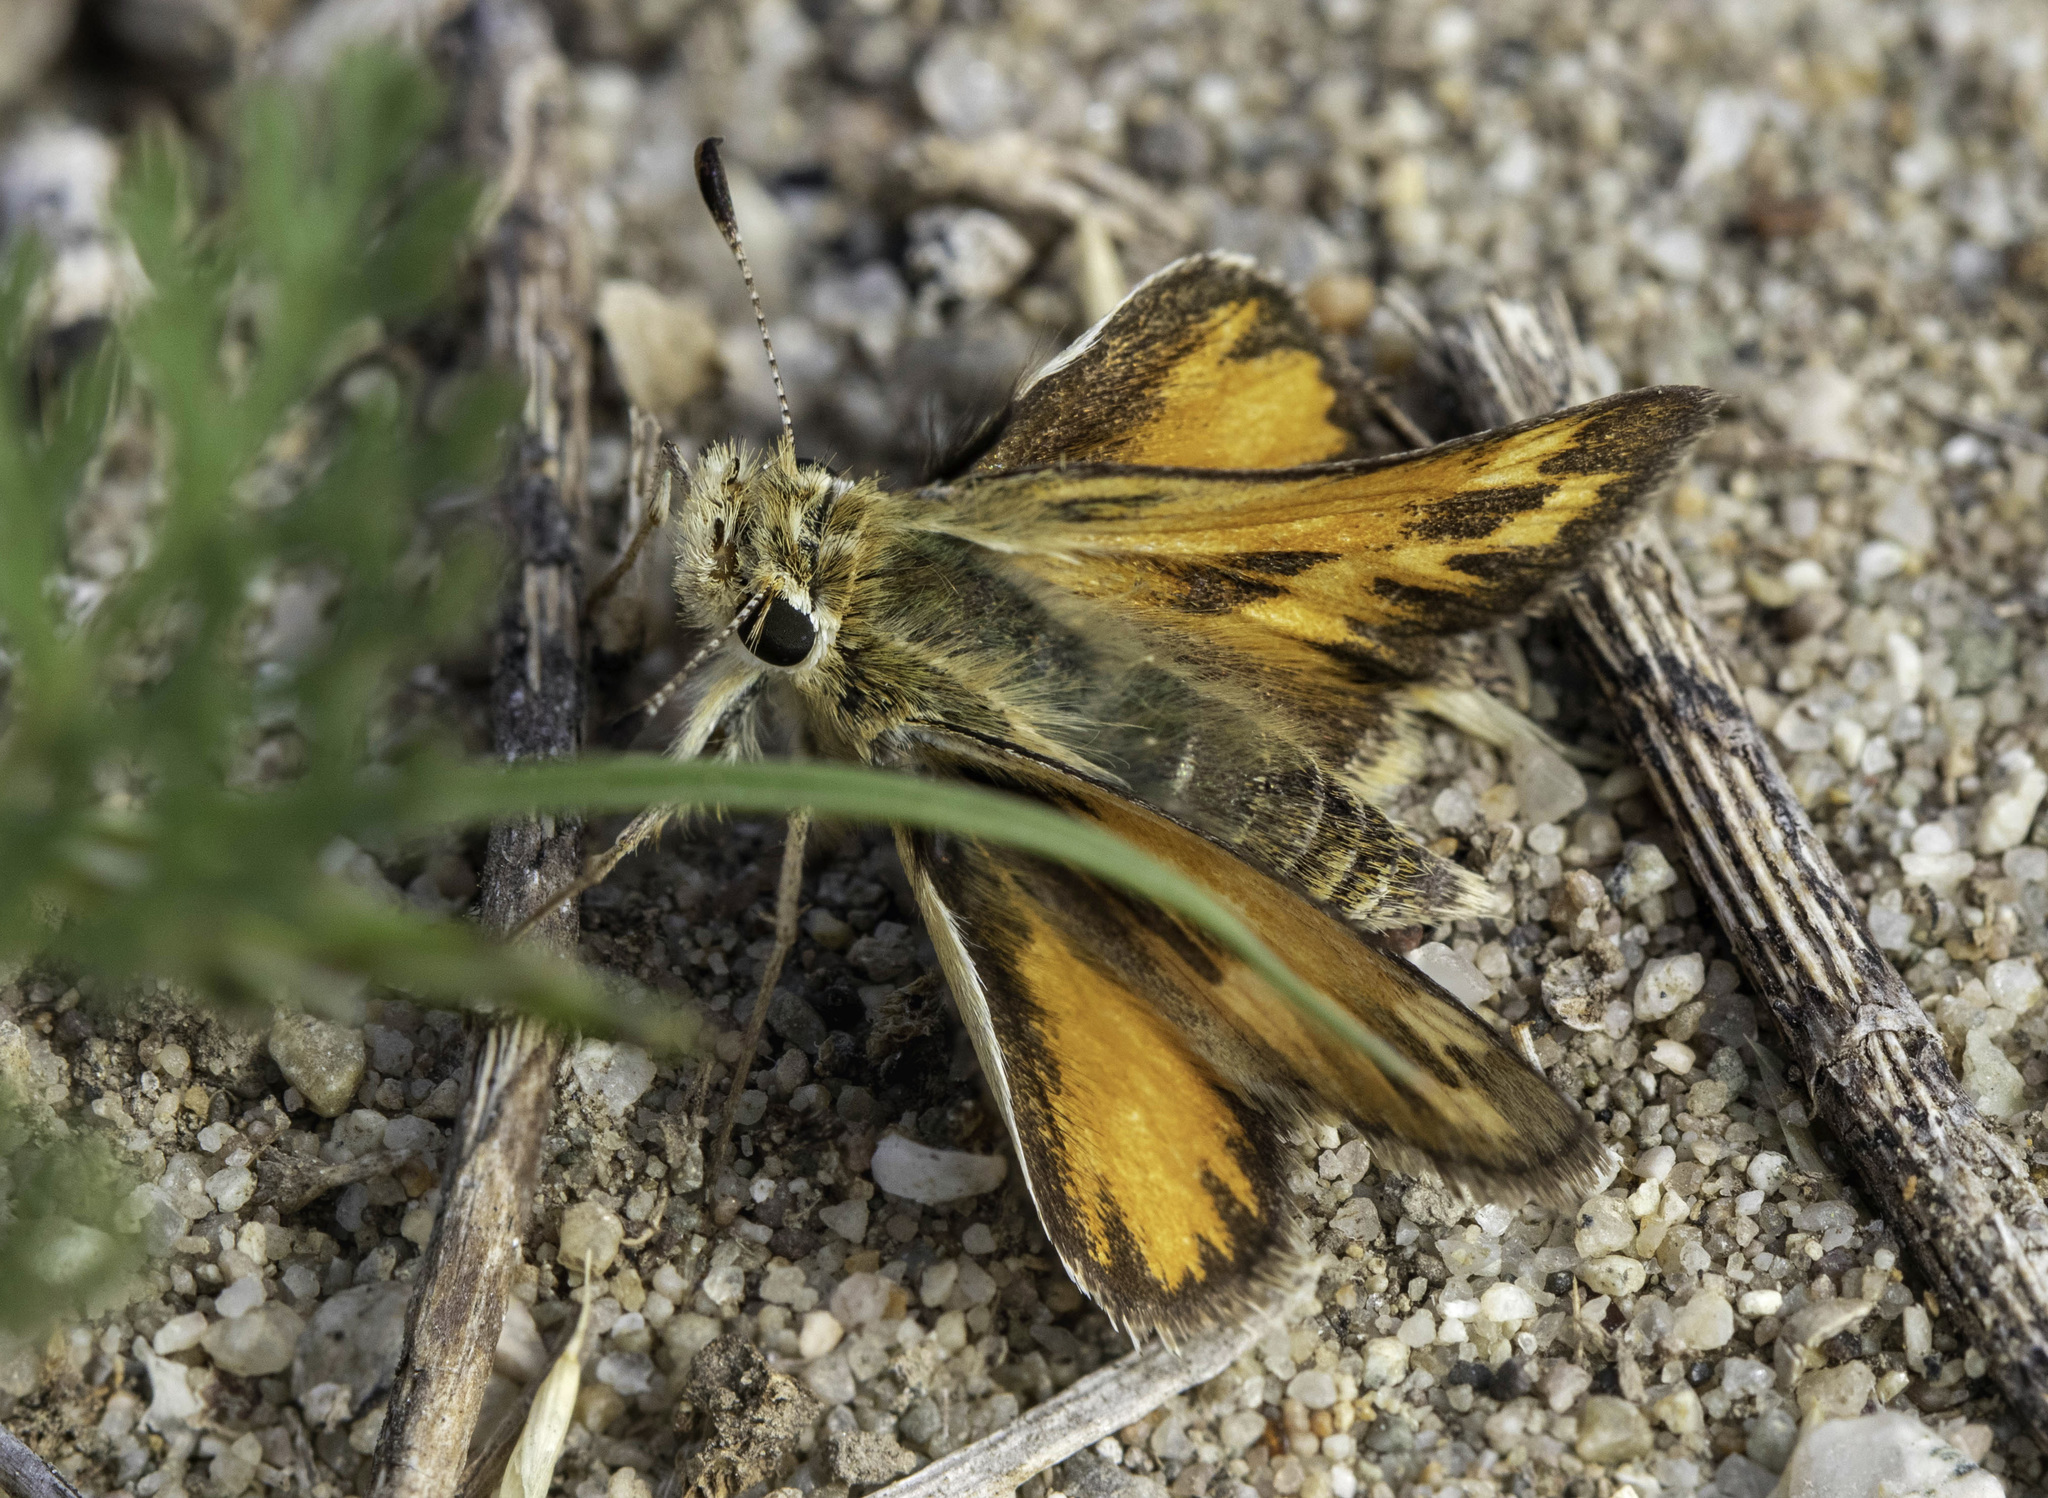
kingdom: Animalia
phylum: Arthropoda
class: Insecta
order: Lepidoptera
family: Hesperiidae
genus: Polites
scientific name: Polites sabuleti
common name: Sandhill skipper
